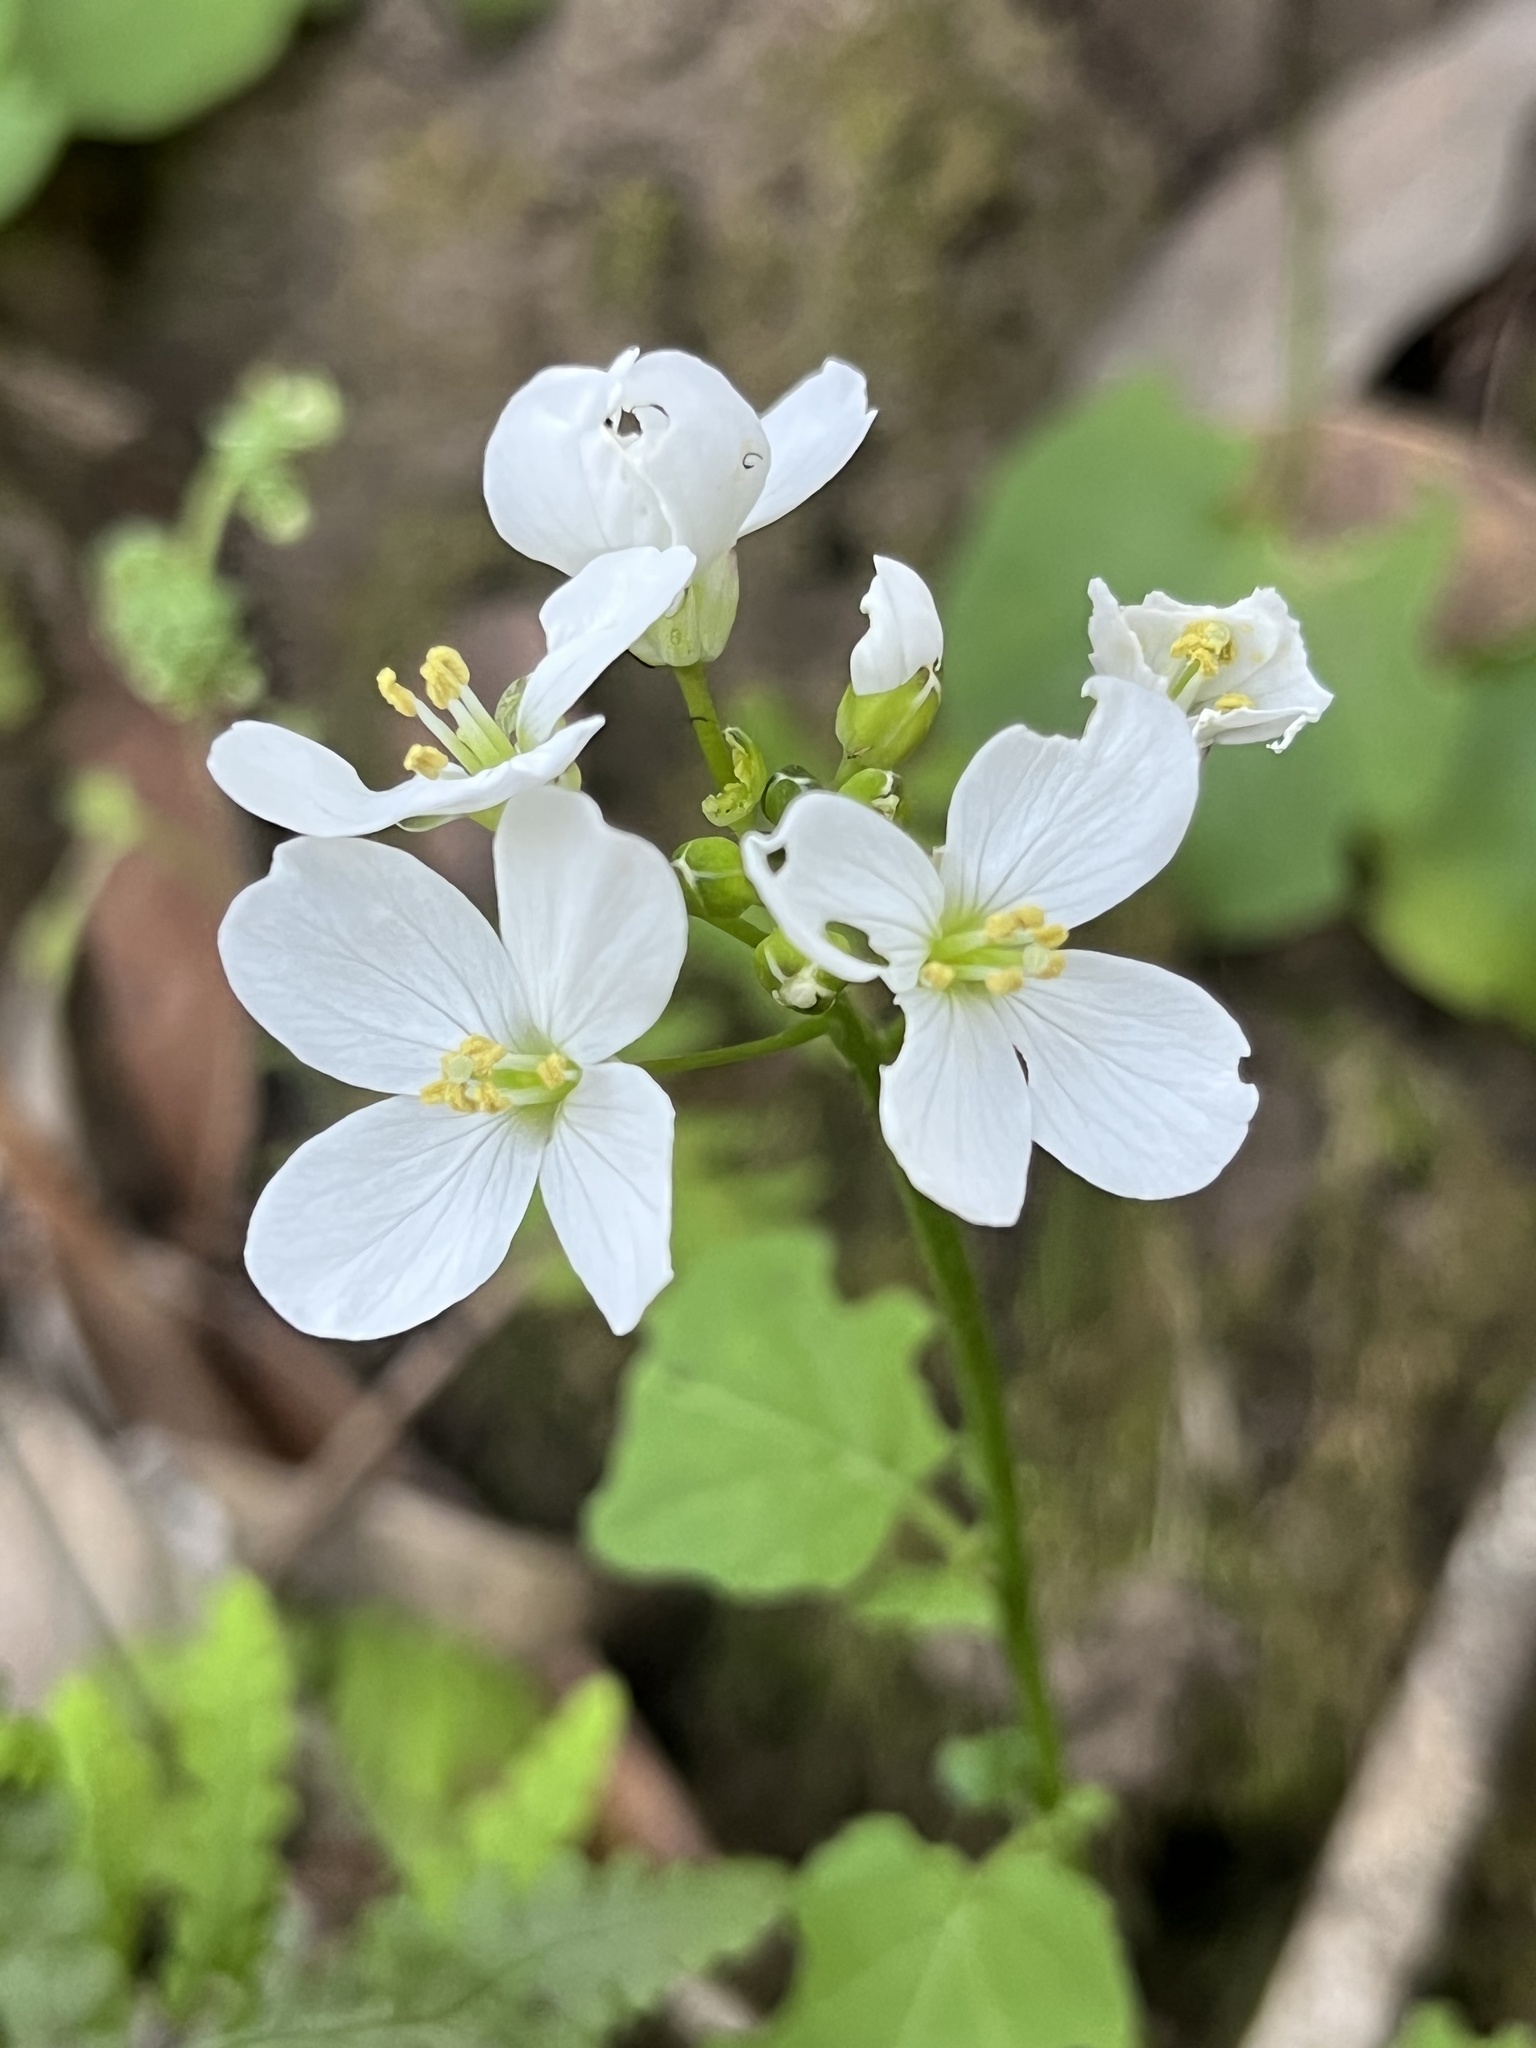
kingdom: Plantae
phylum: Tracheophyta
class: Magnoliopsida
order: Brassicales
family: Brassicaceae
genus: Cardamine
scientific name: Cardamine californica
